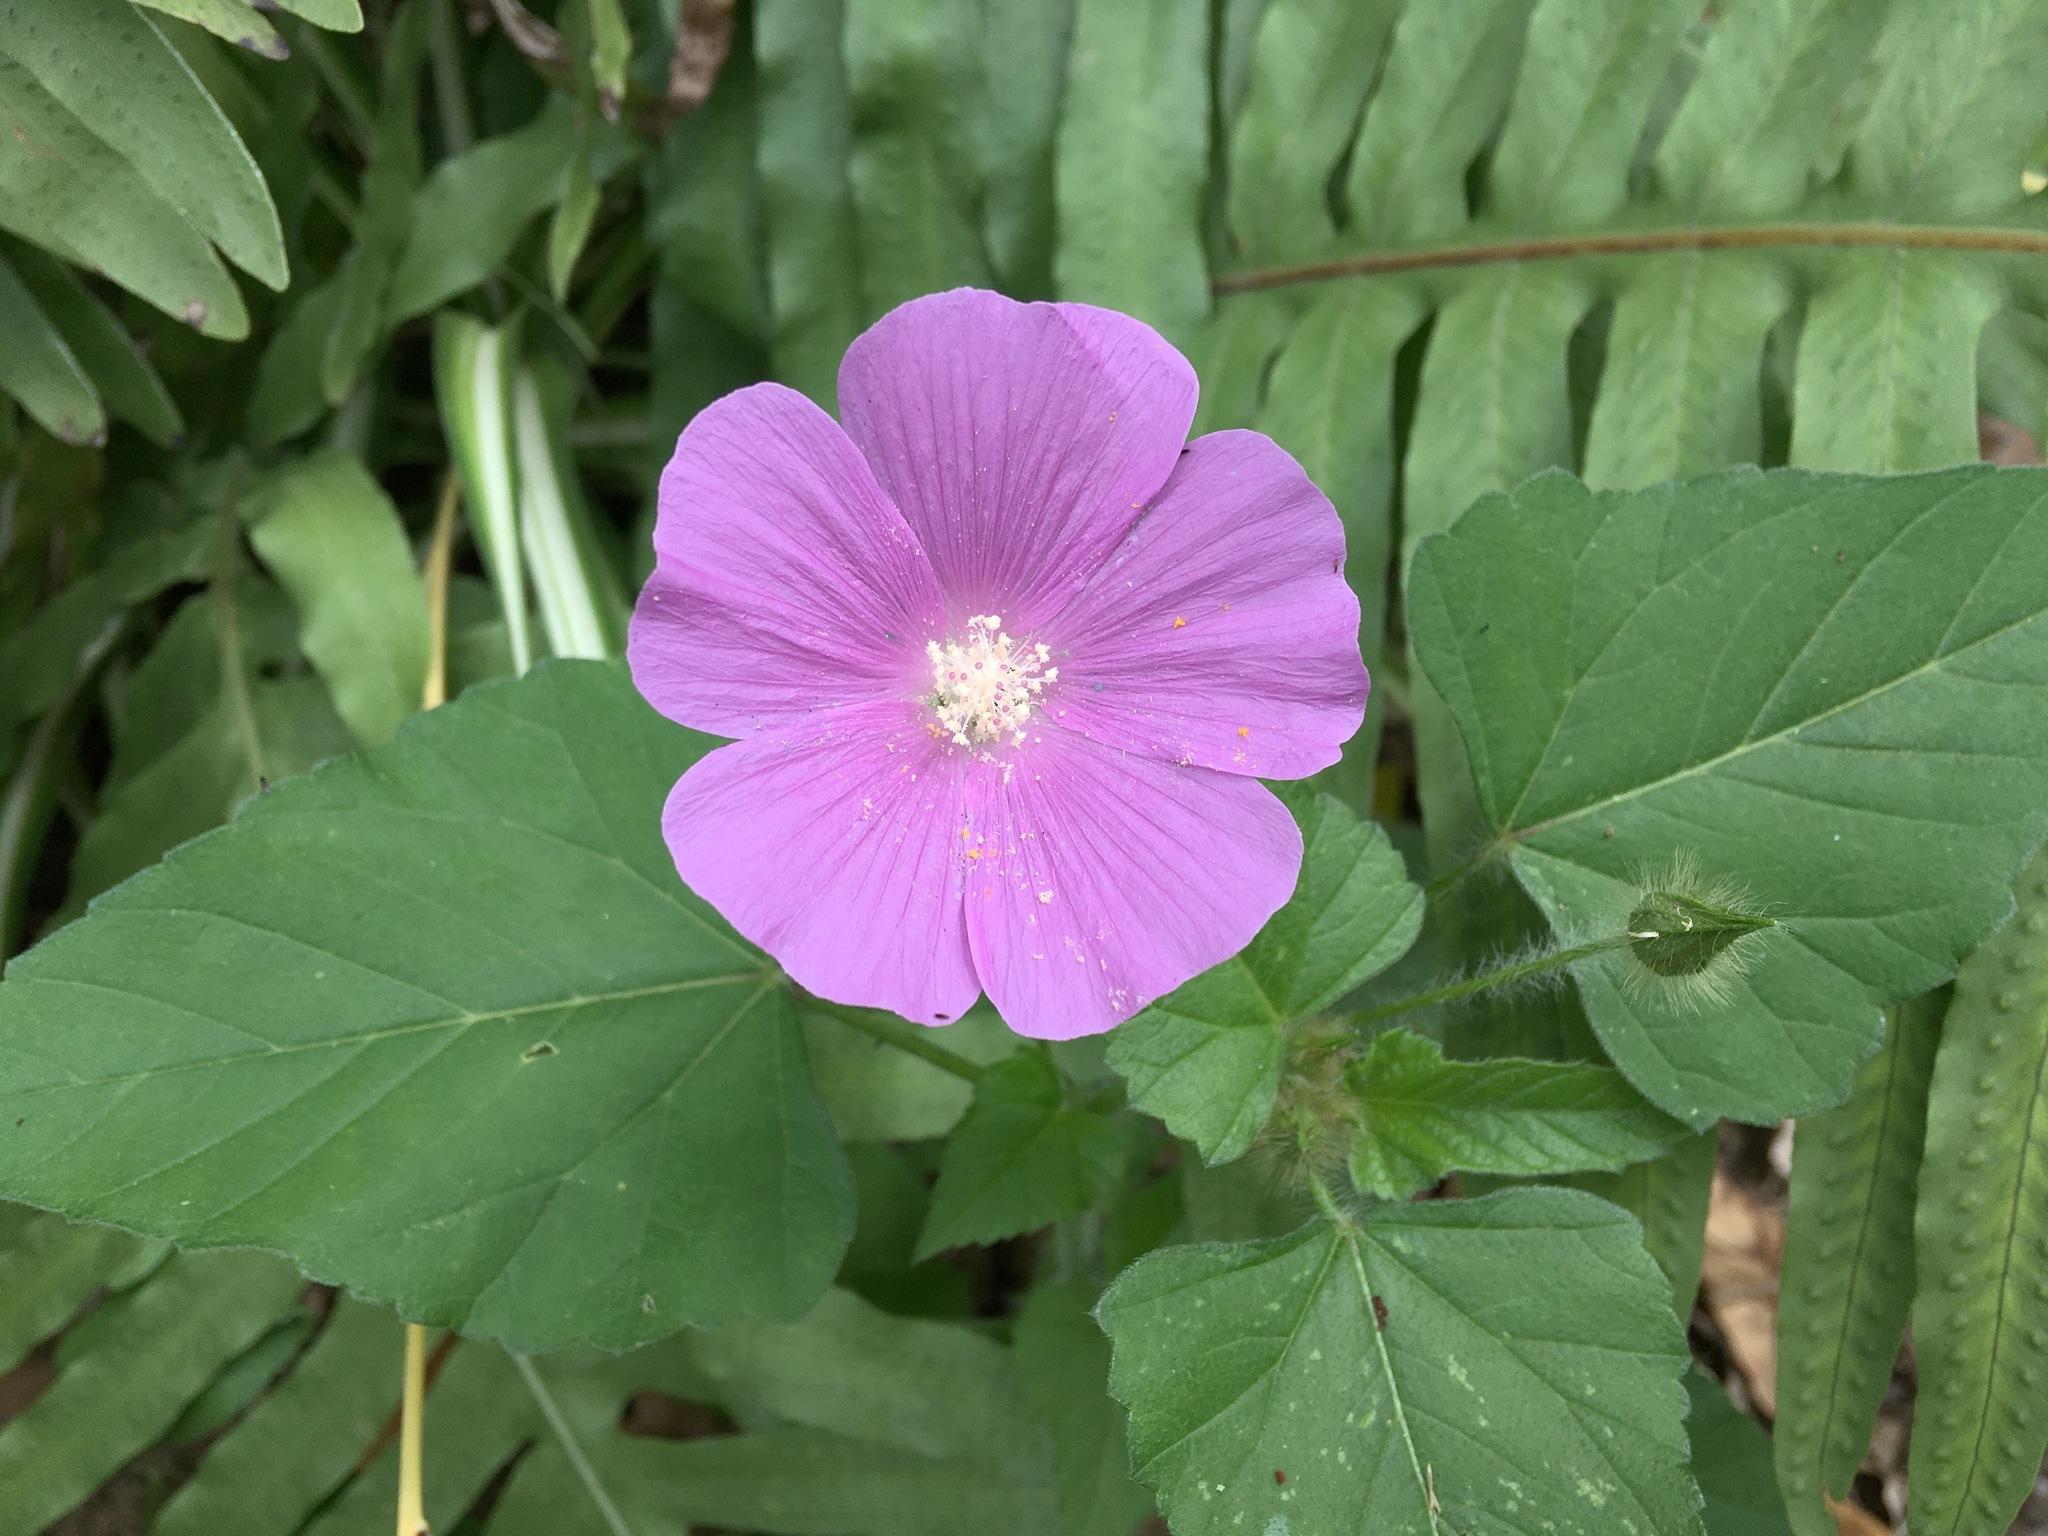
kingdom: Plantae
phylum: Tracheophyta
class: Magnoliopsida
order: Malvales
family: Malvaceae
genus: Anoda
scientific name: Anoda cristata
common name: Spurred anoda
